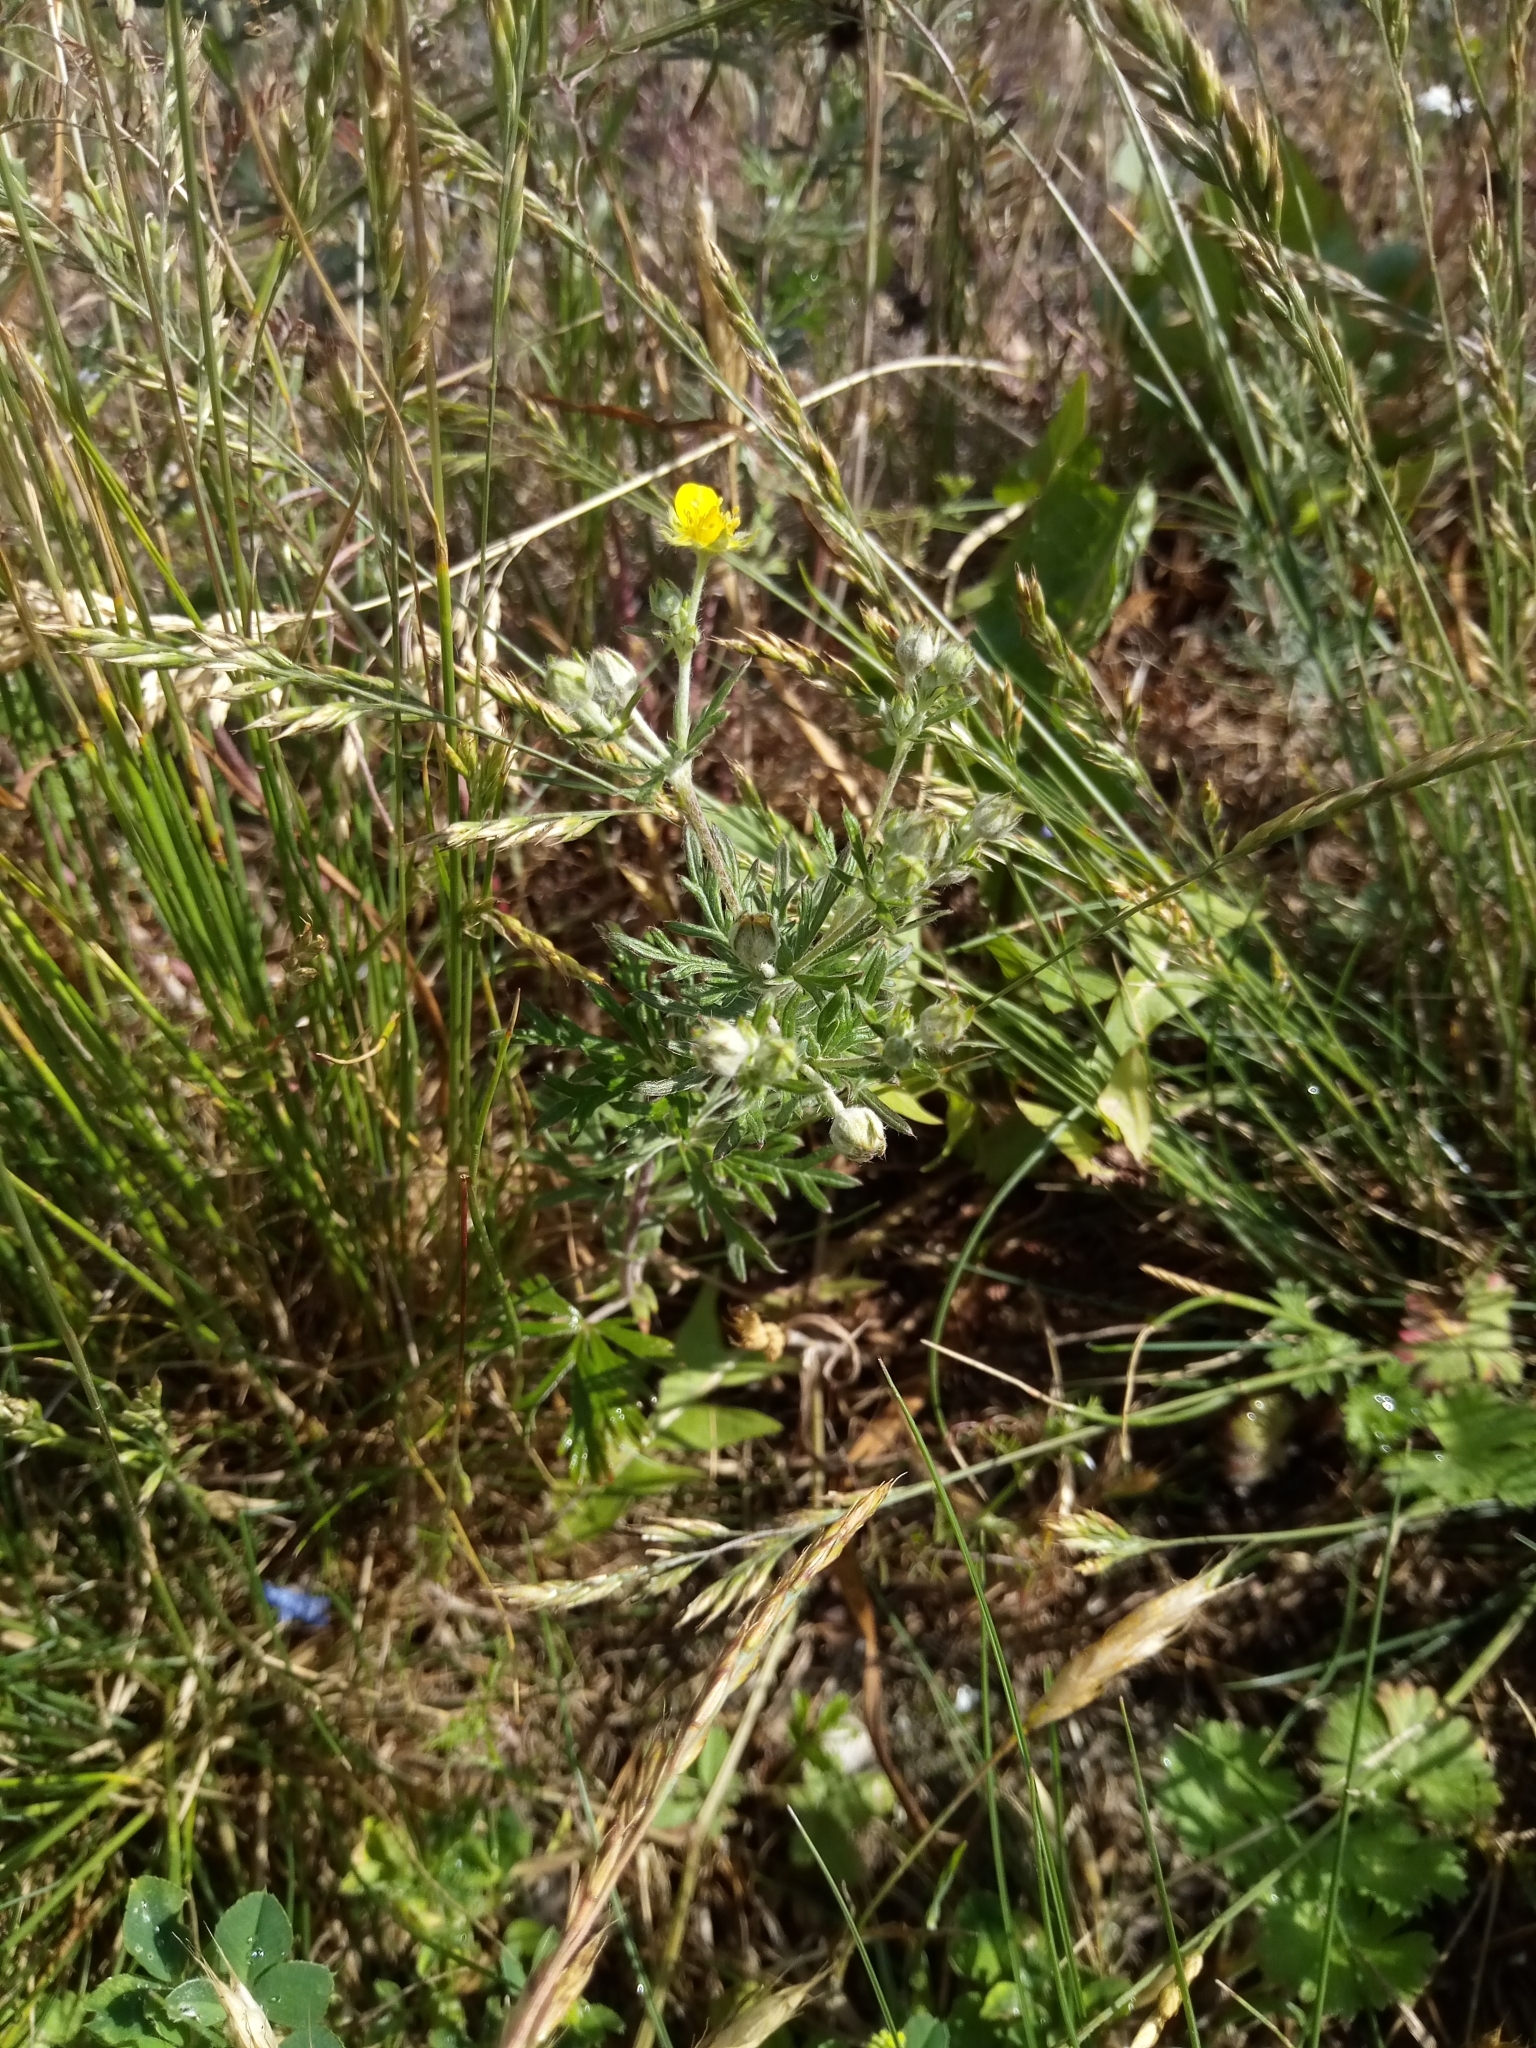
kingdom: Plantae
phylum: Tracheophyta
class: Magnoliopsida
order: Rosales
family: Rosaceae
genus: Potentilla
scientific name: Potentilla argentea
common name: Hoary cinquefoil
